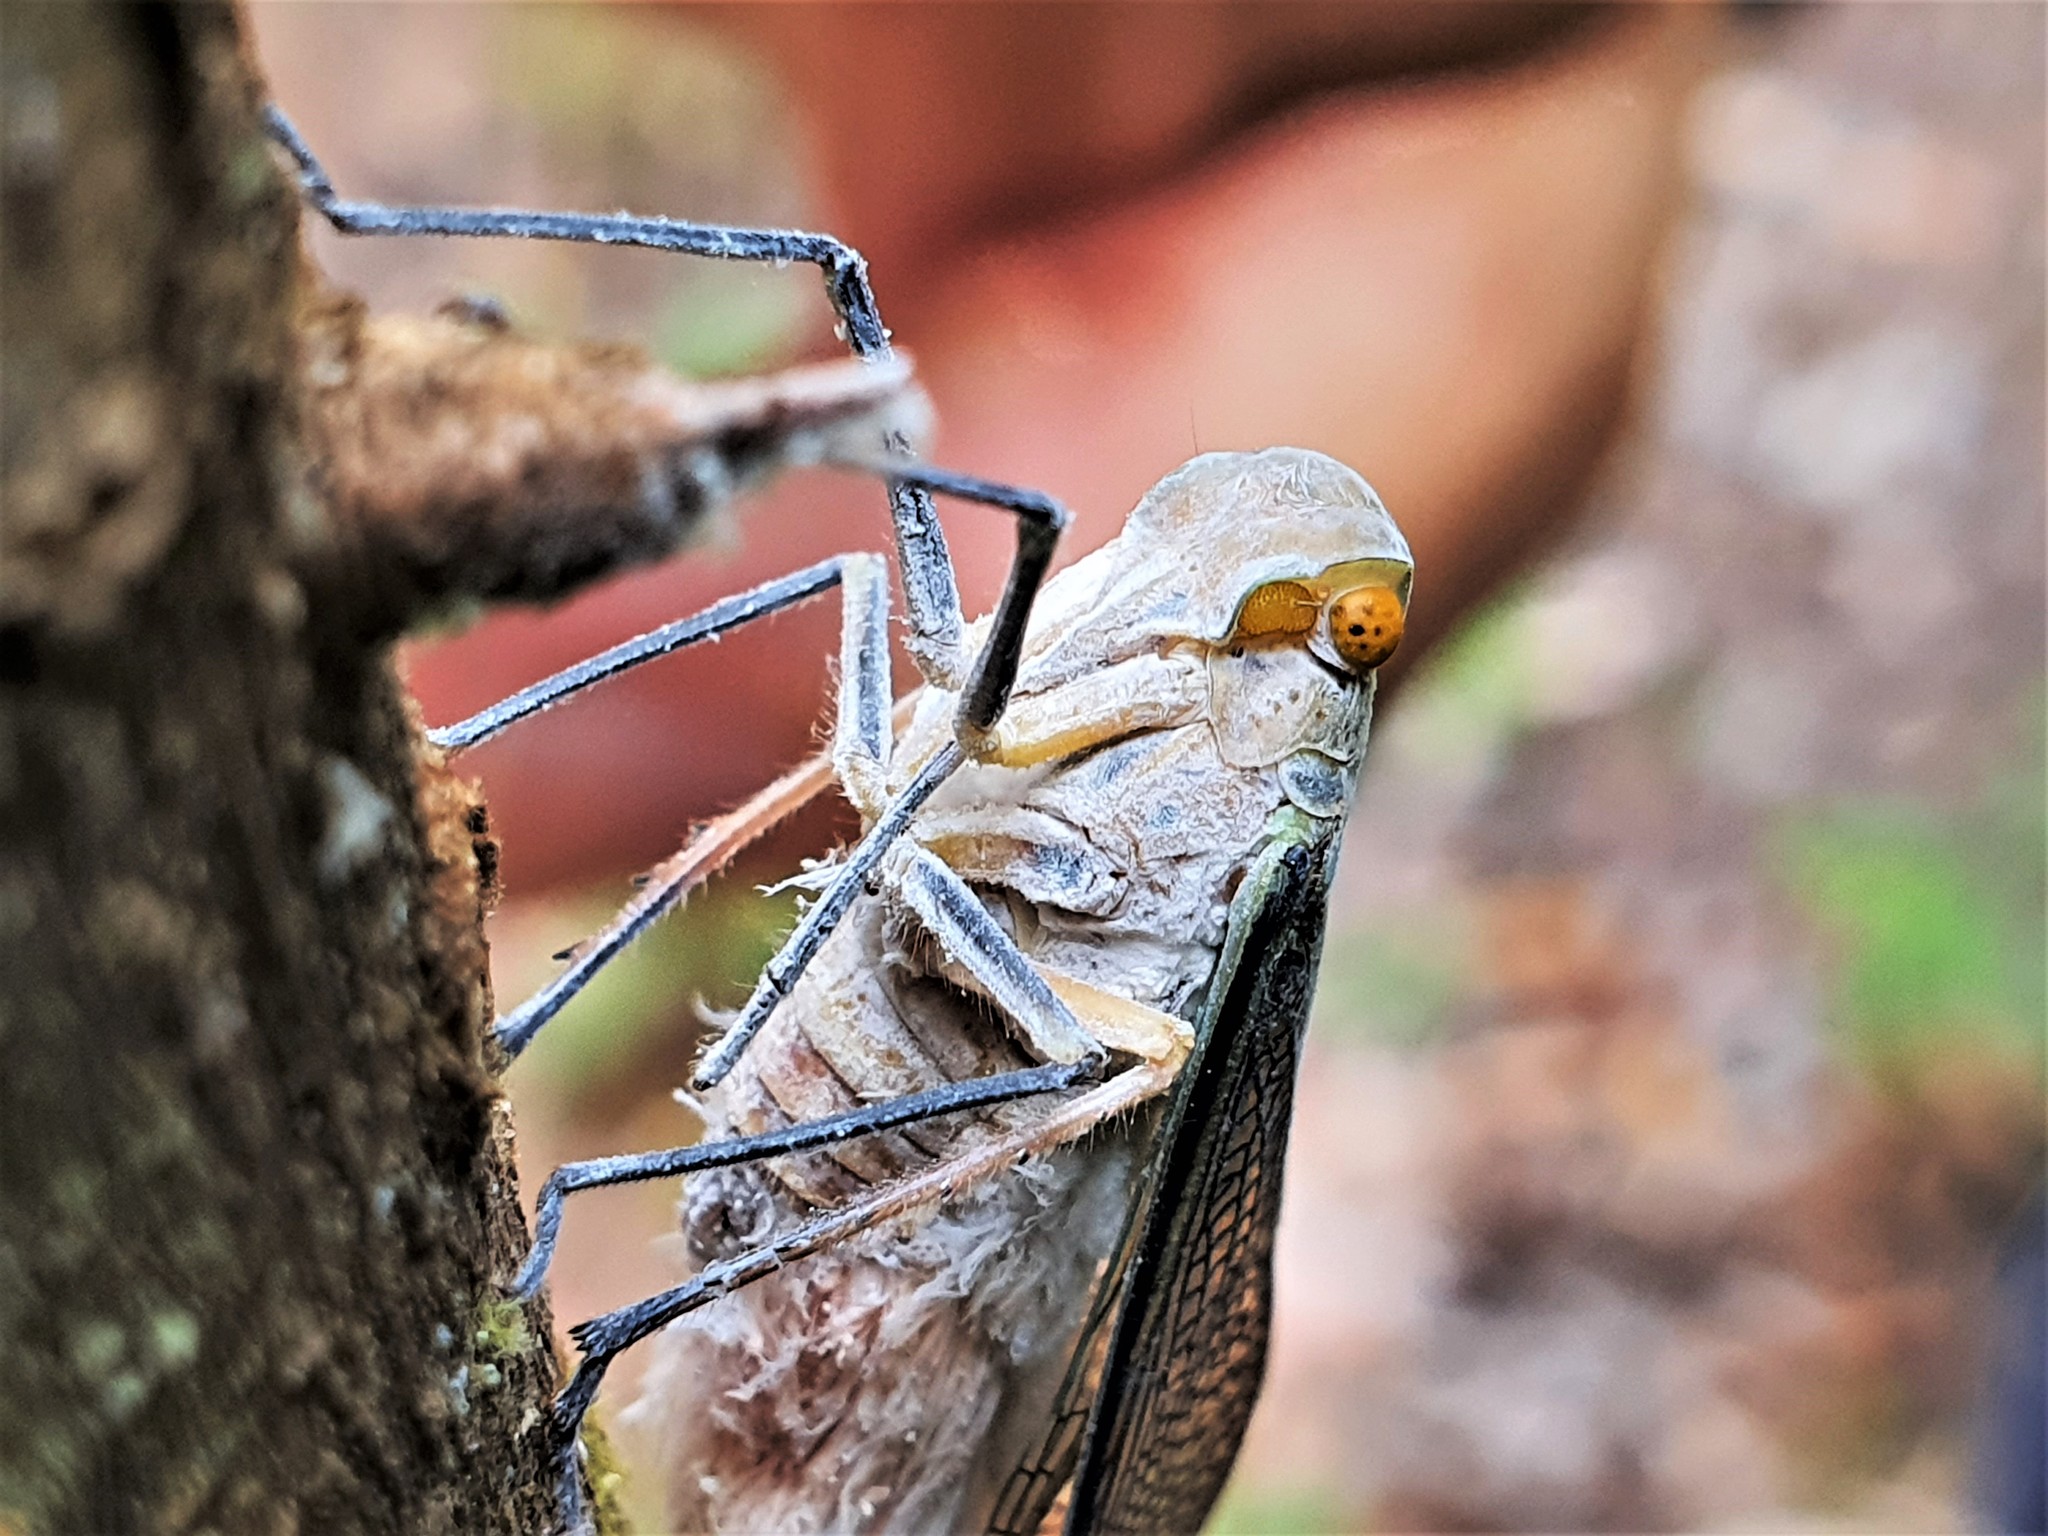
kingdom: Animalia
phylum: Arthropoda
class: Insecta
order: Hemiptera
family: Fulgoridae
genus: Pterodictya
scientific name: Pterodictya reticularis
